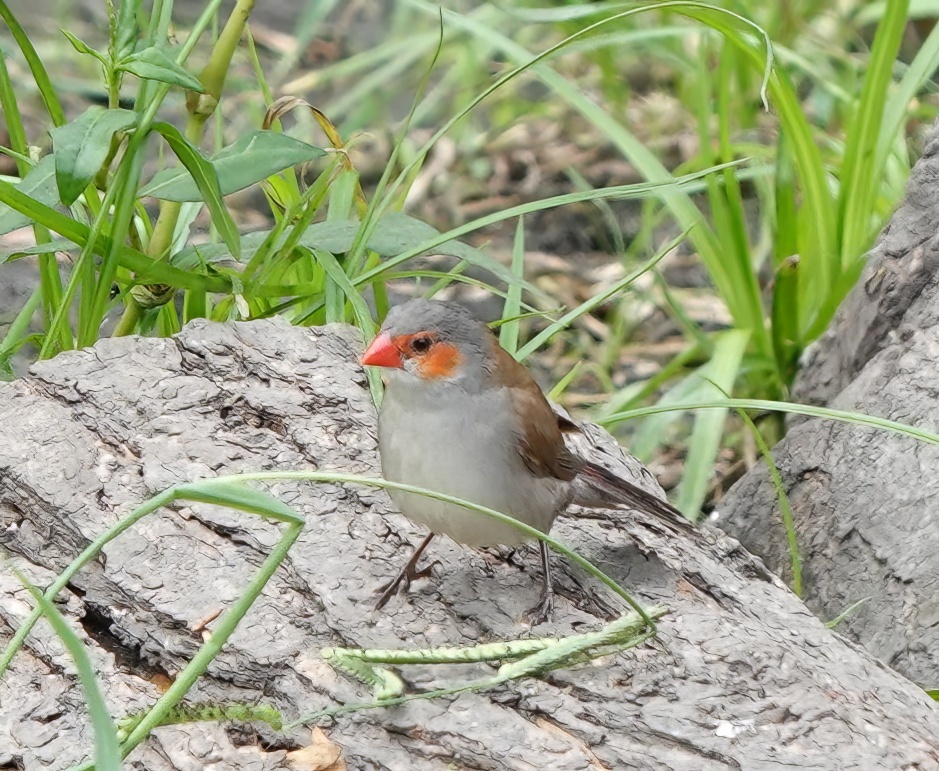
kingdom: Animalia
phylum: Chordata
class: Aves
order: Passeriformes
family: Estrildidae
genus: Estrilda
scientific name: Estrilda melpoda
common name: Orange-cheeked waxbill
